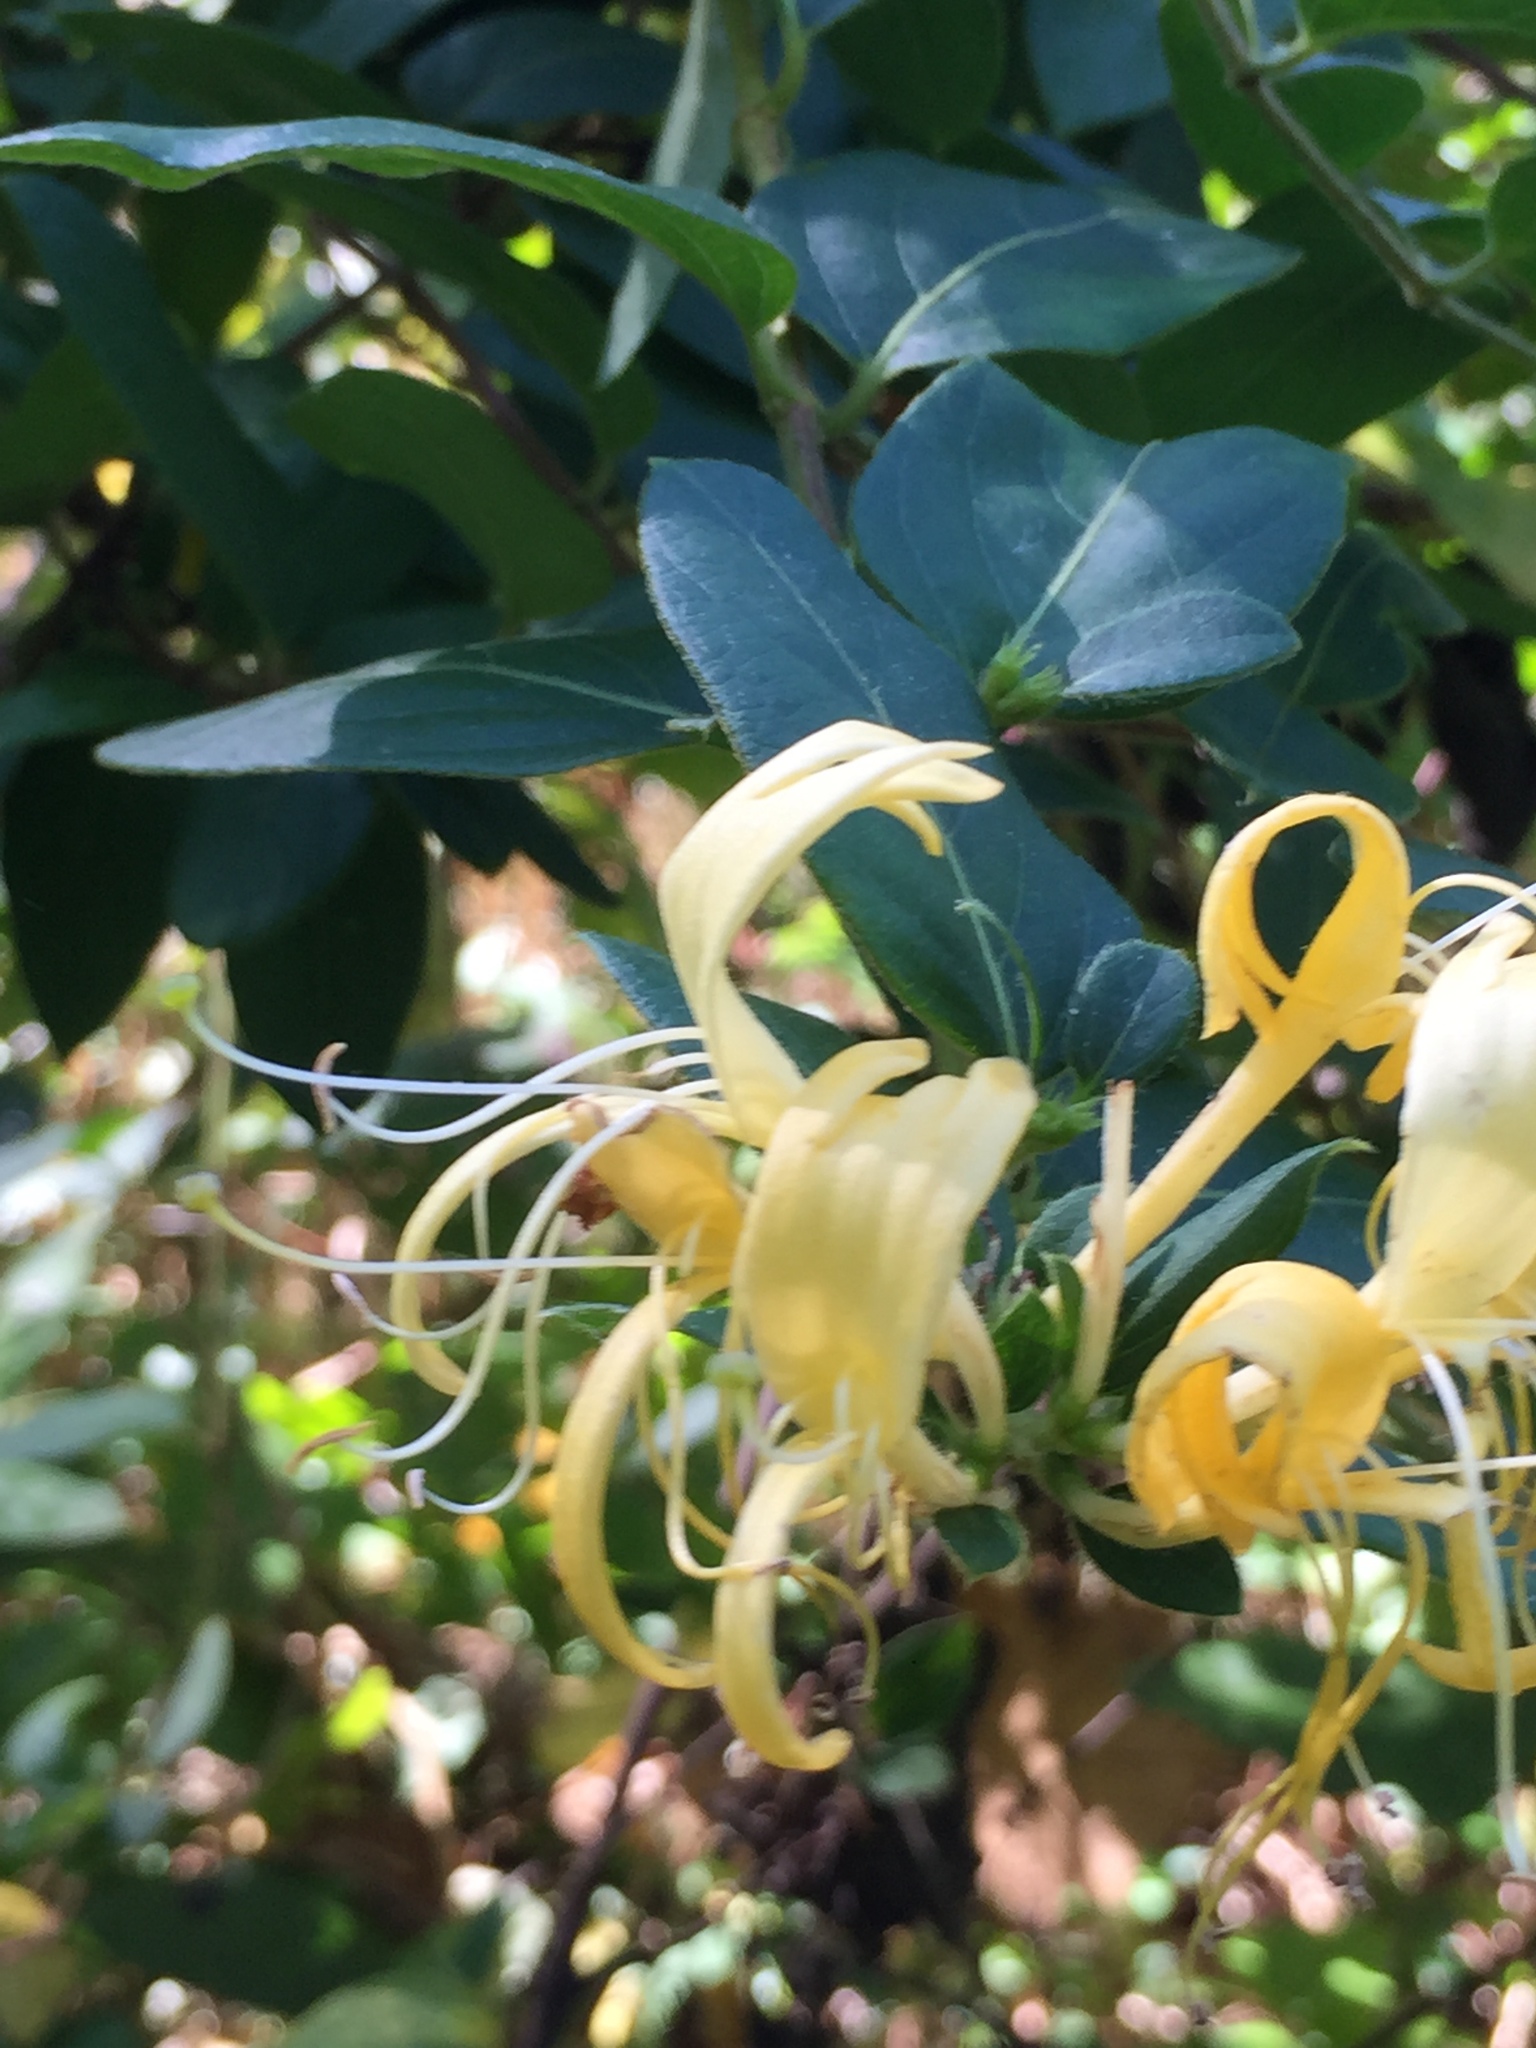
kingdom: Plantae
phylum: Tracheophyta
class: Magnoliopsida
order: Dipsacales
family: Caprifoliaceae
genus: Lonicera
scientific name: Lonicera japonica
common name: Japanese honeysuckle
